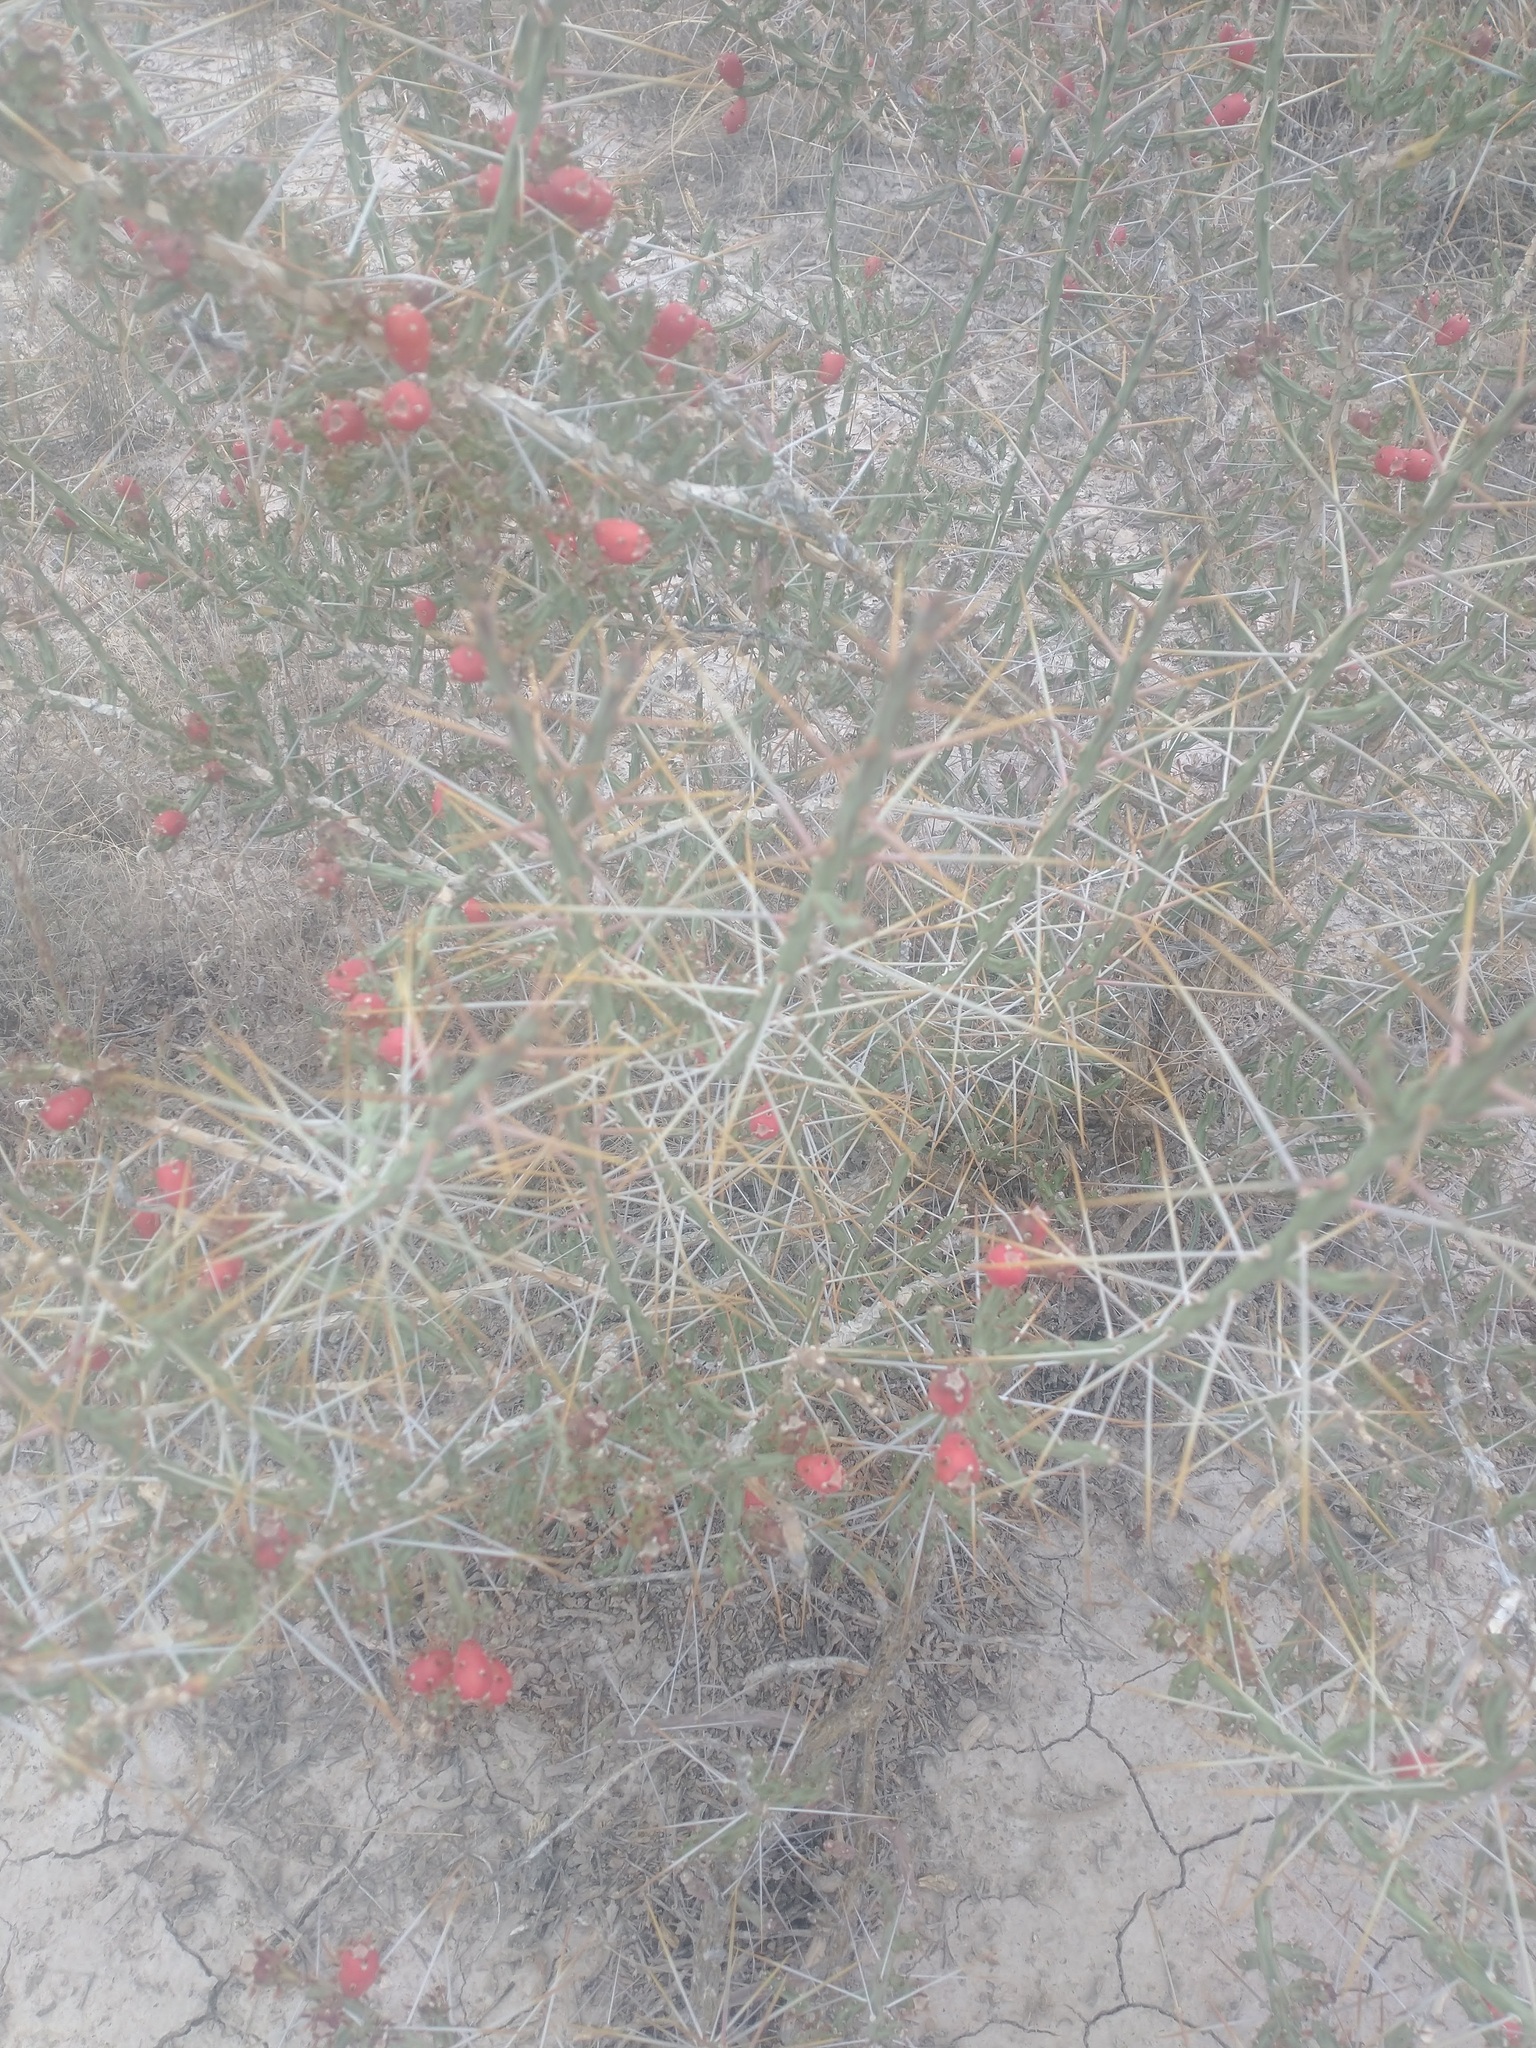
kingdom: Plantae
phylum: Tracheophyta
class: Magnoliopsida
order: Caryophyllales
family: Cactaceae
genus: Cylindropuntia
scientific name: Cylindropuntia leptocaulis
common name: Christmas cactus
